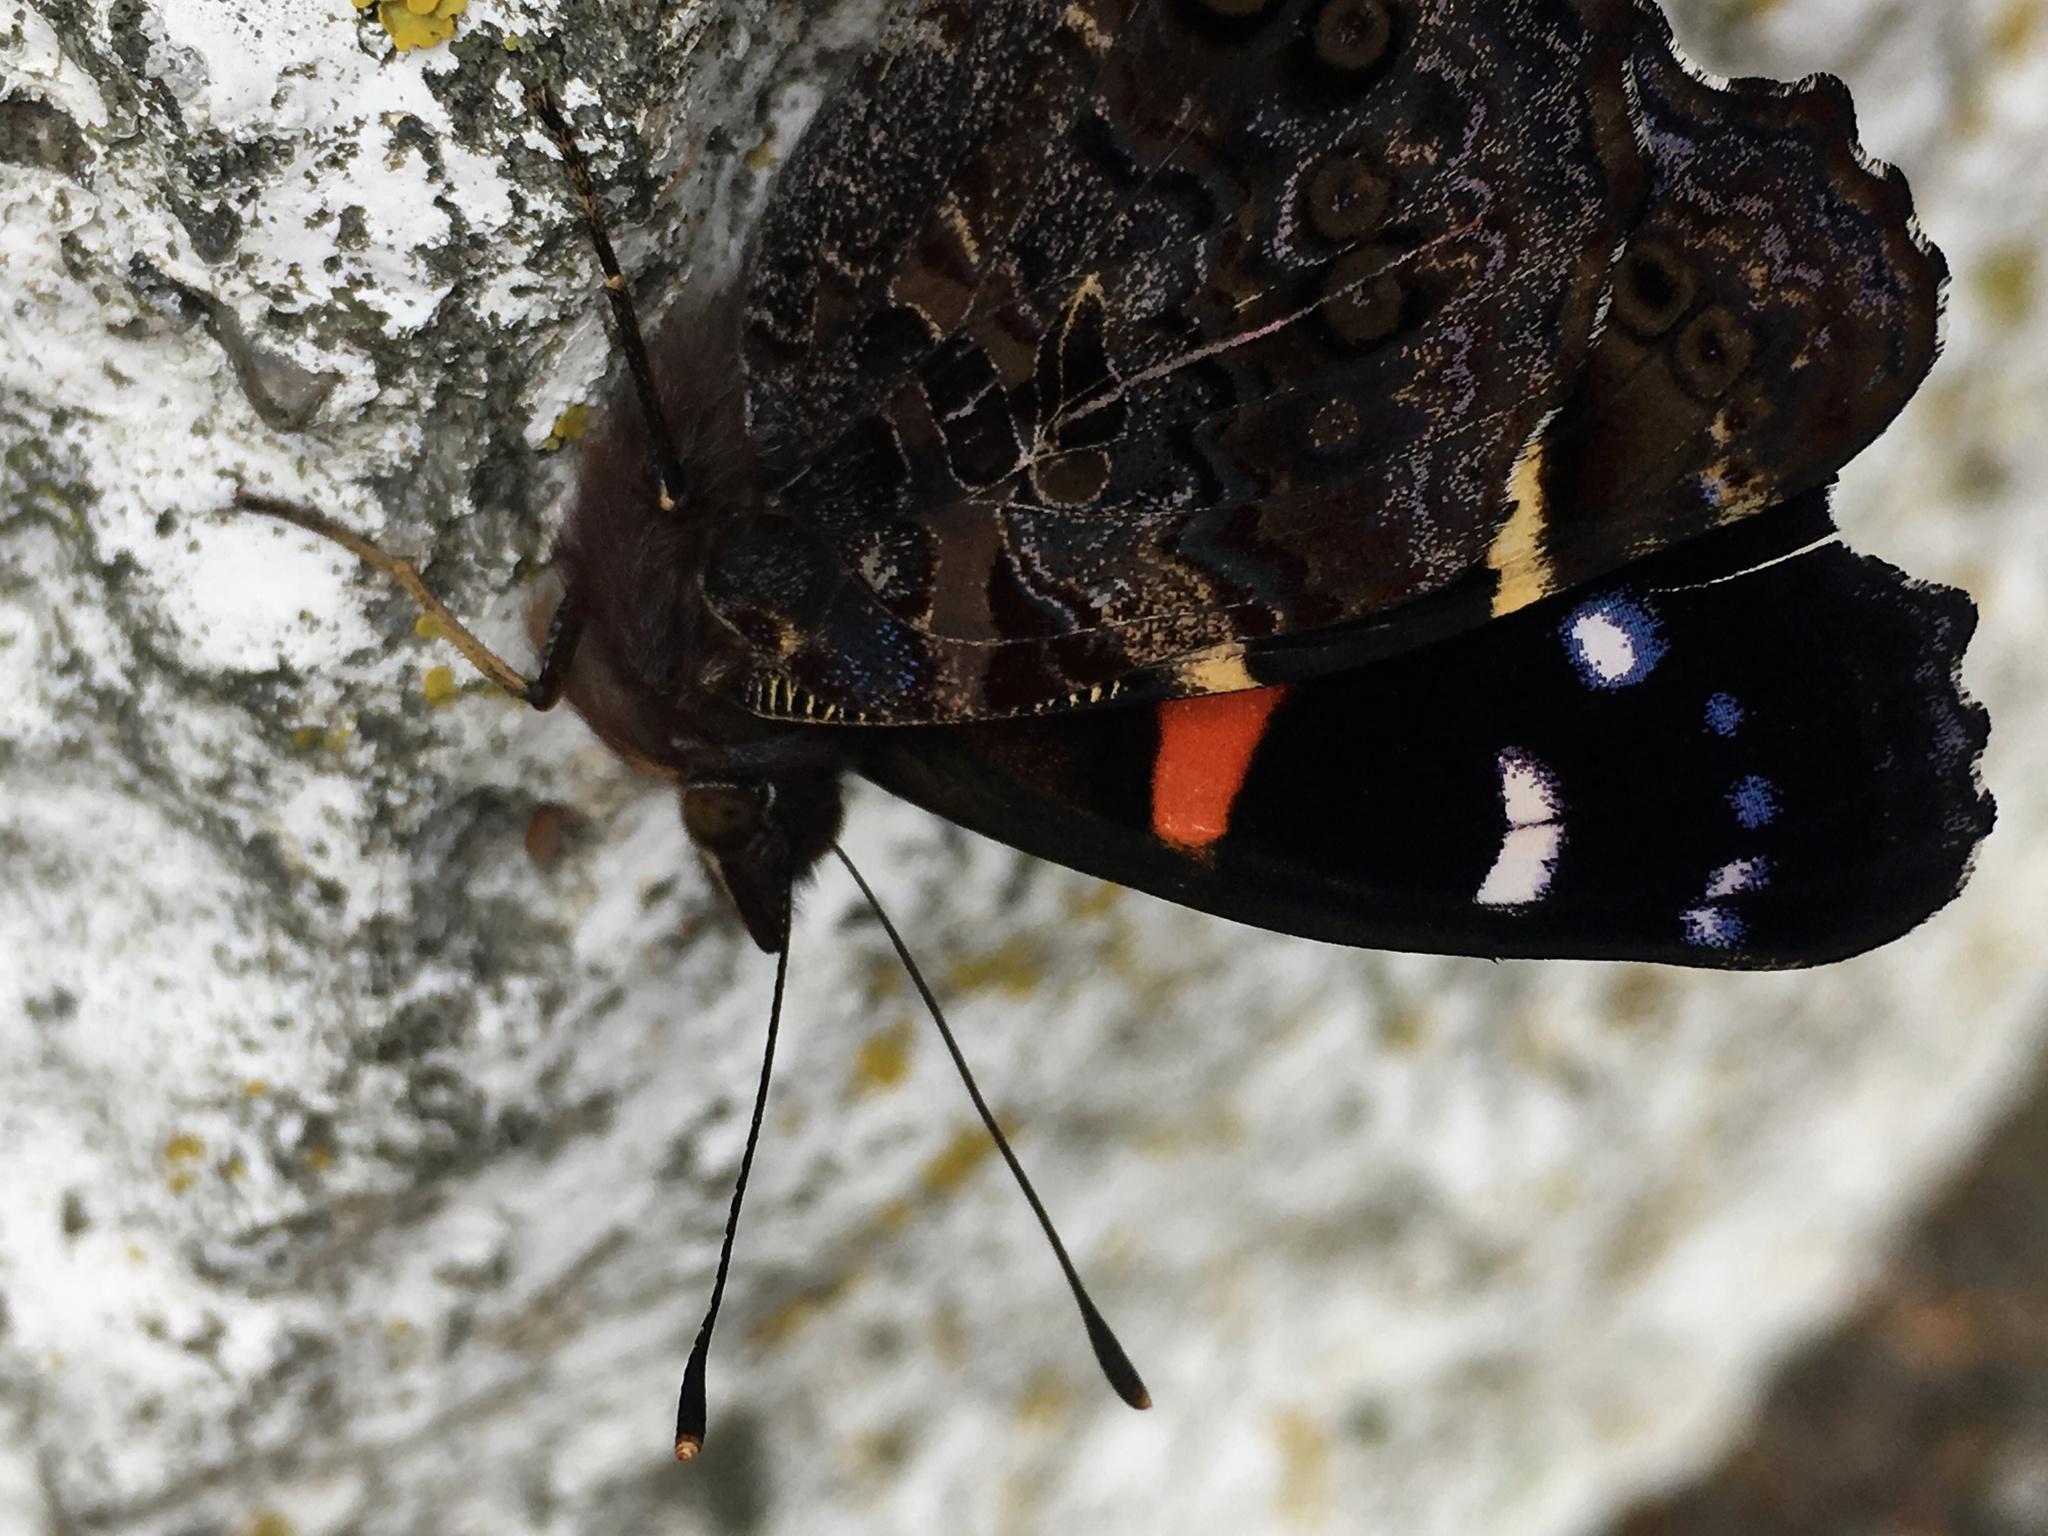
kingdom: Animalia
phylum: Arthropoda
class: Insecta
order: Lepidoptera
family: Nymphalidae
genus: Vanessa
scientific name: Vanessa gonerilla
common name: New zealand red admiral
